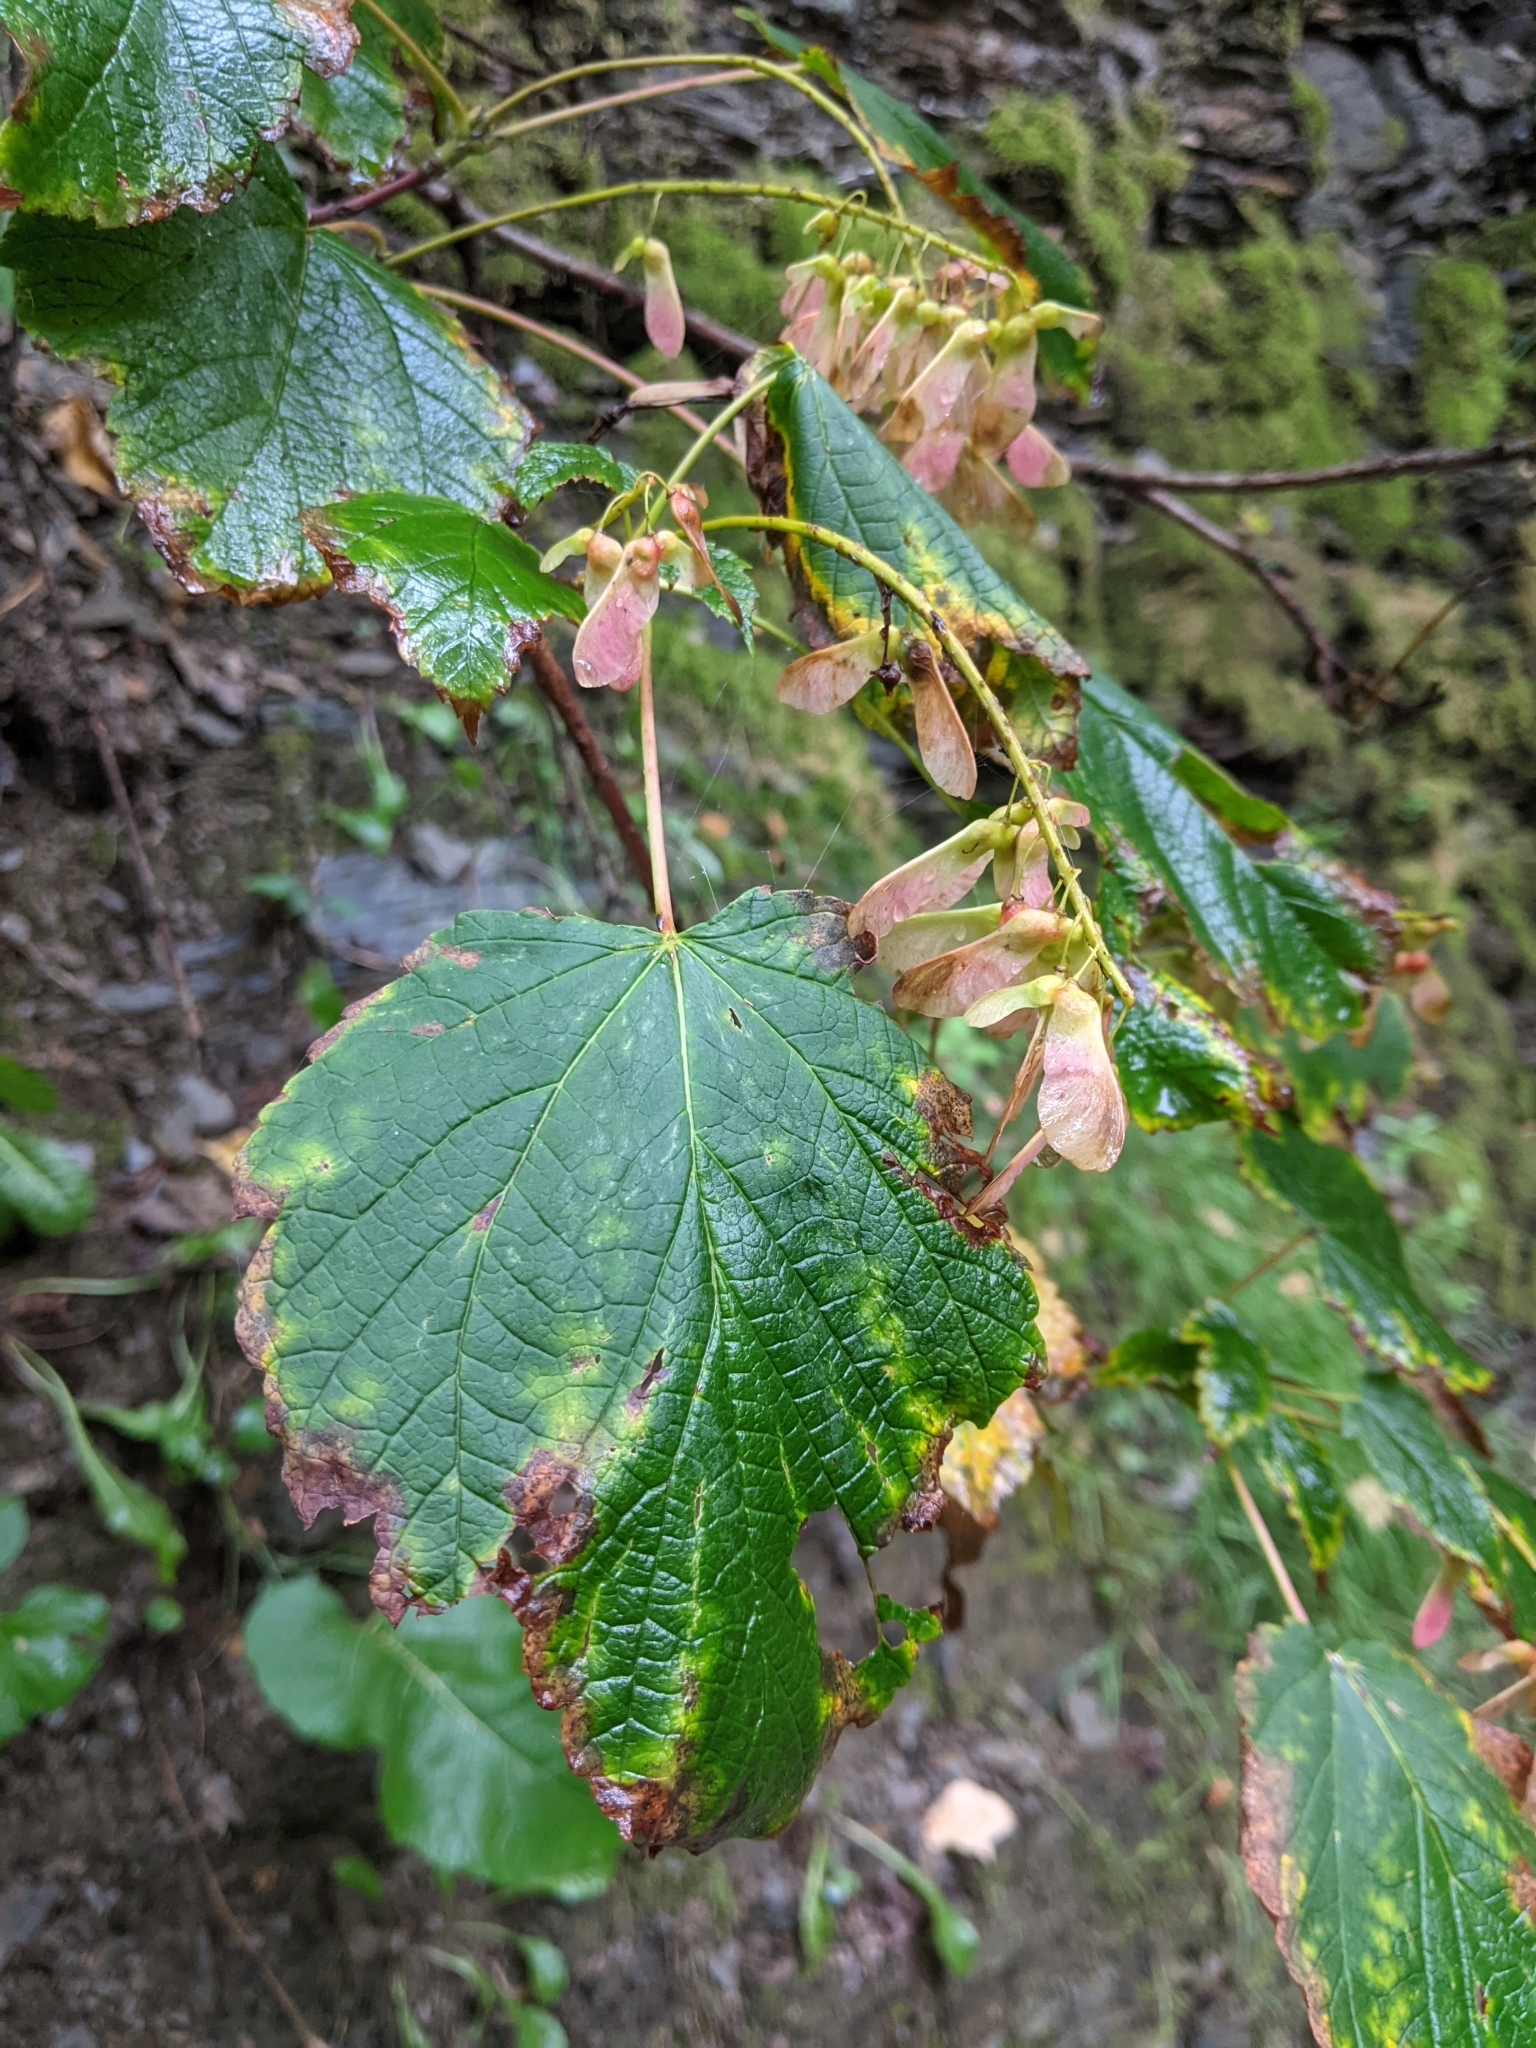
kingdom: Plantae
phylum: Tracheophyta
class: Magnoliopsida
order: Sapindales
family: Sapindaceae
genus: Acer
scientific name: Acer spicatum
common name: Mountain maple
